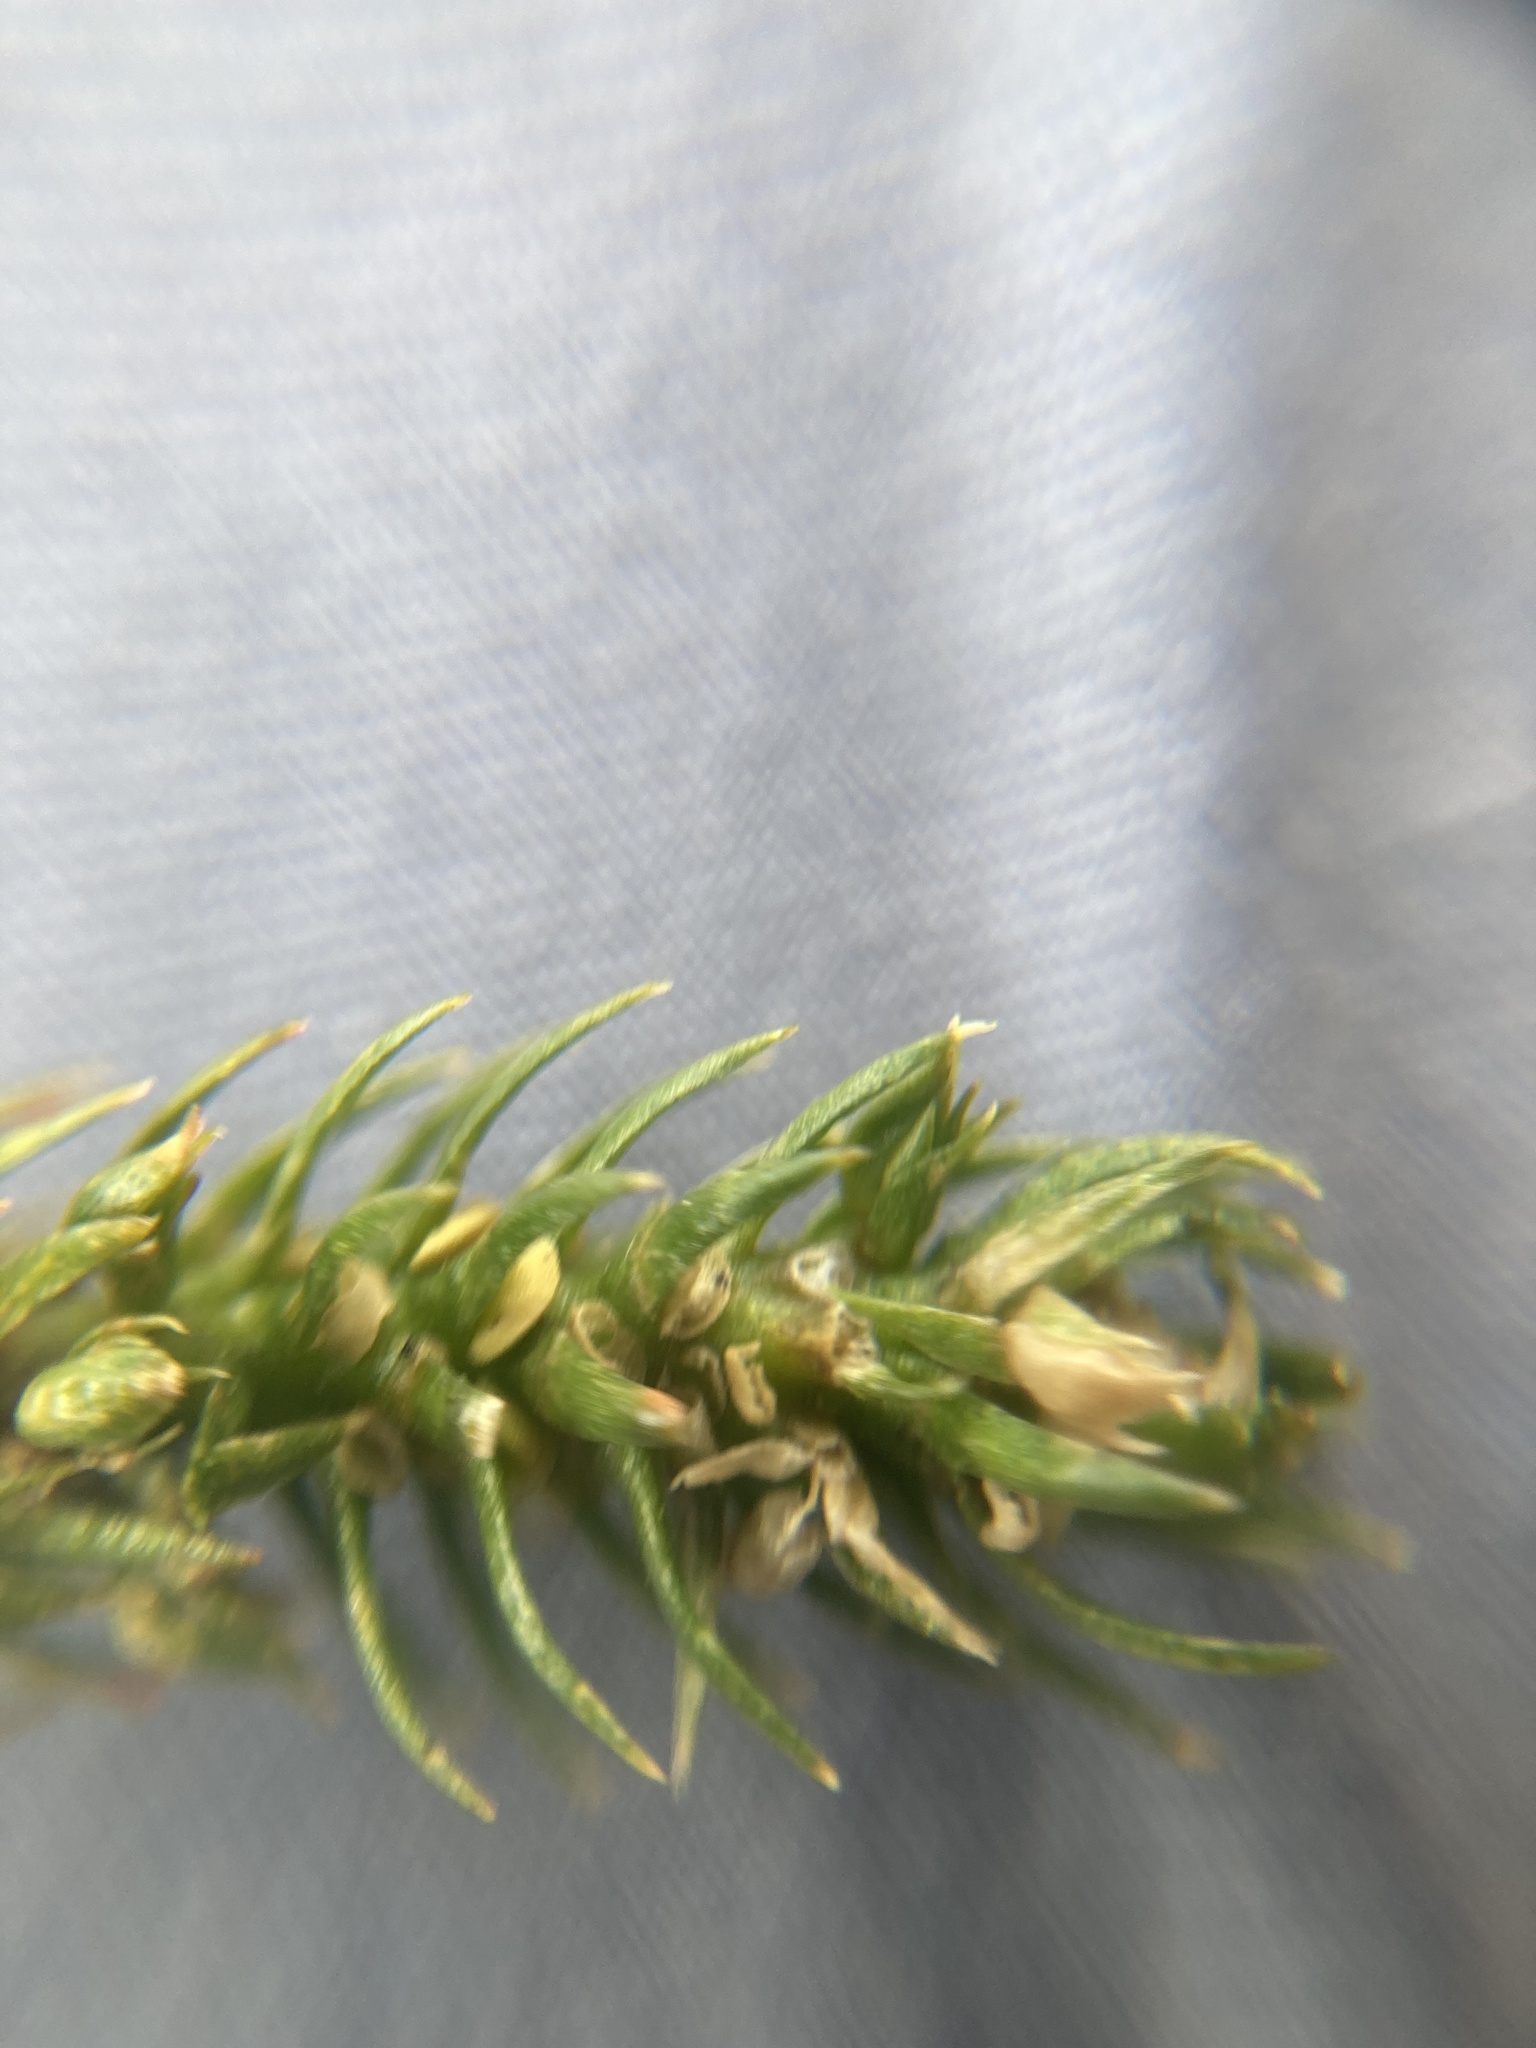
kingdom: Plantae
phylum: Tracheophyta
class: Lycopodiopsida
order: Lycopodiales
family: Lycopodiaceae
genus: Huperzia
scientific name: Huperzia selago
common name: Northern firmoss
